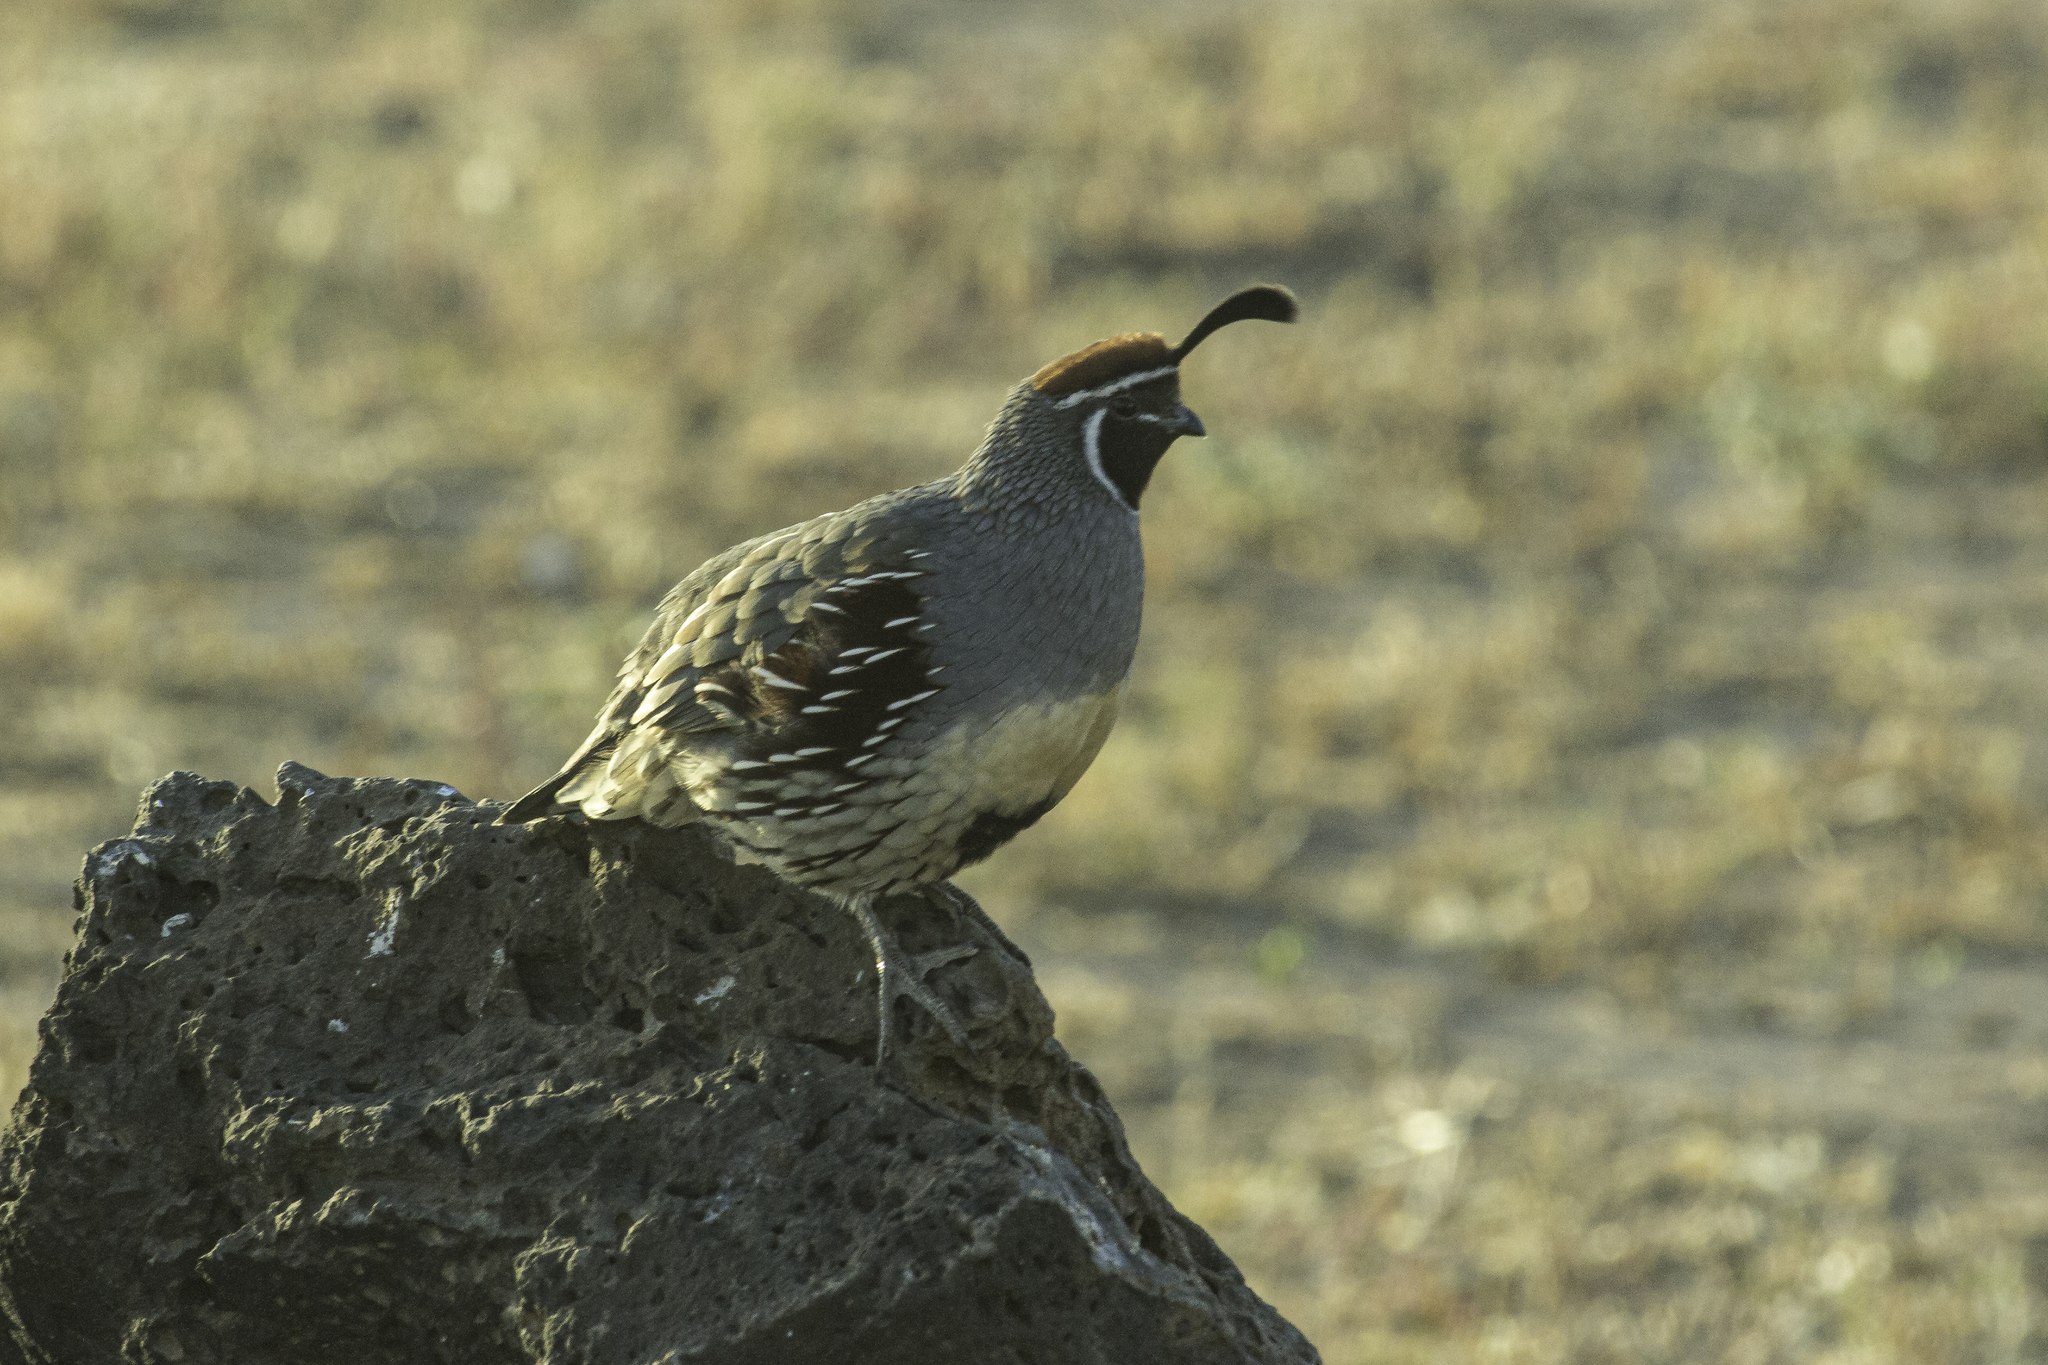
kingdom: Animalia
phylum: Chordata
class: Aves
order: Galliformes
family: Odontophoridae
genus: Callipepla
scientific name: Callipepla gambelii
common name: Gambel's quail
